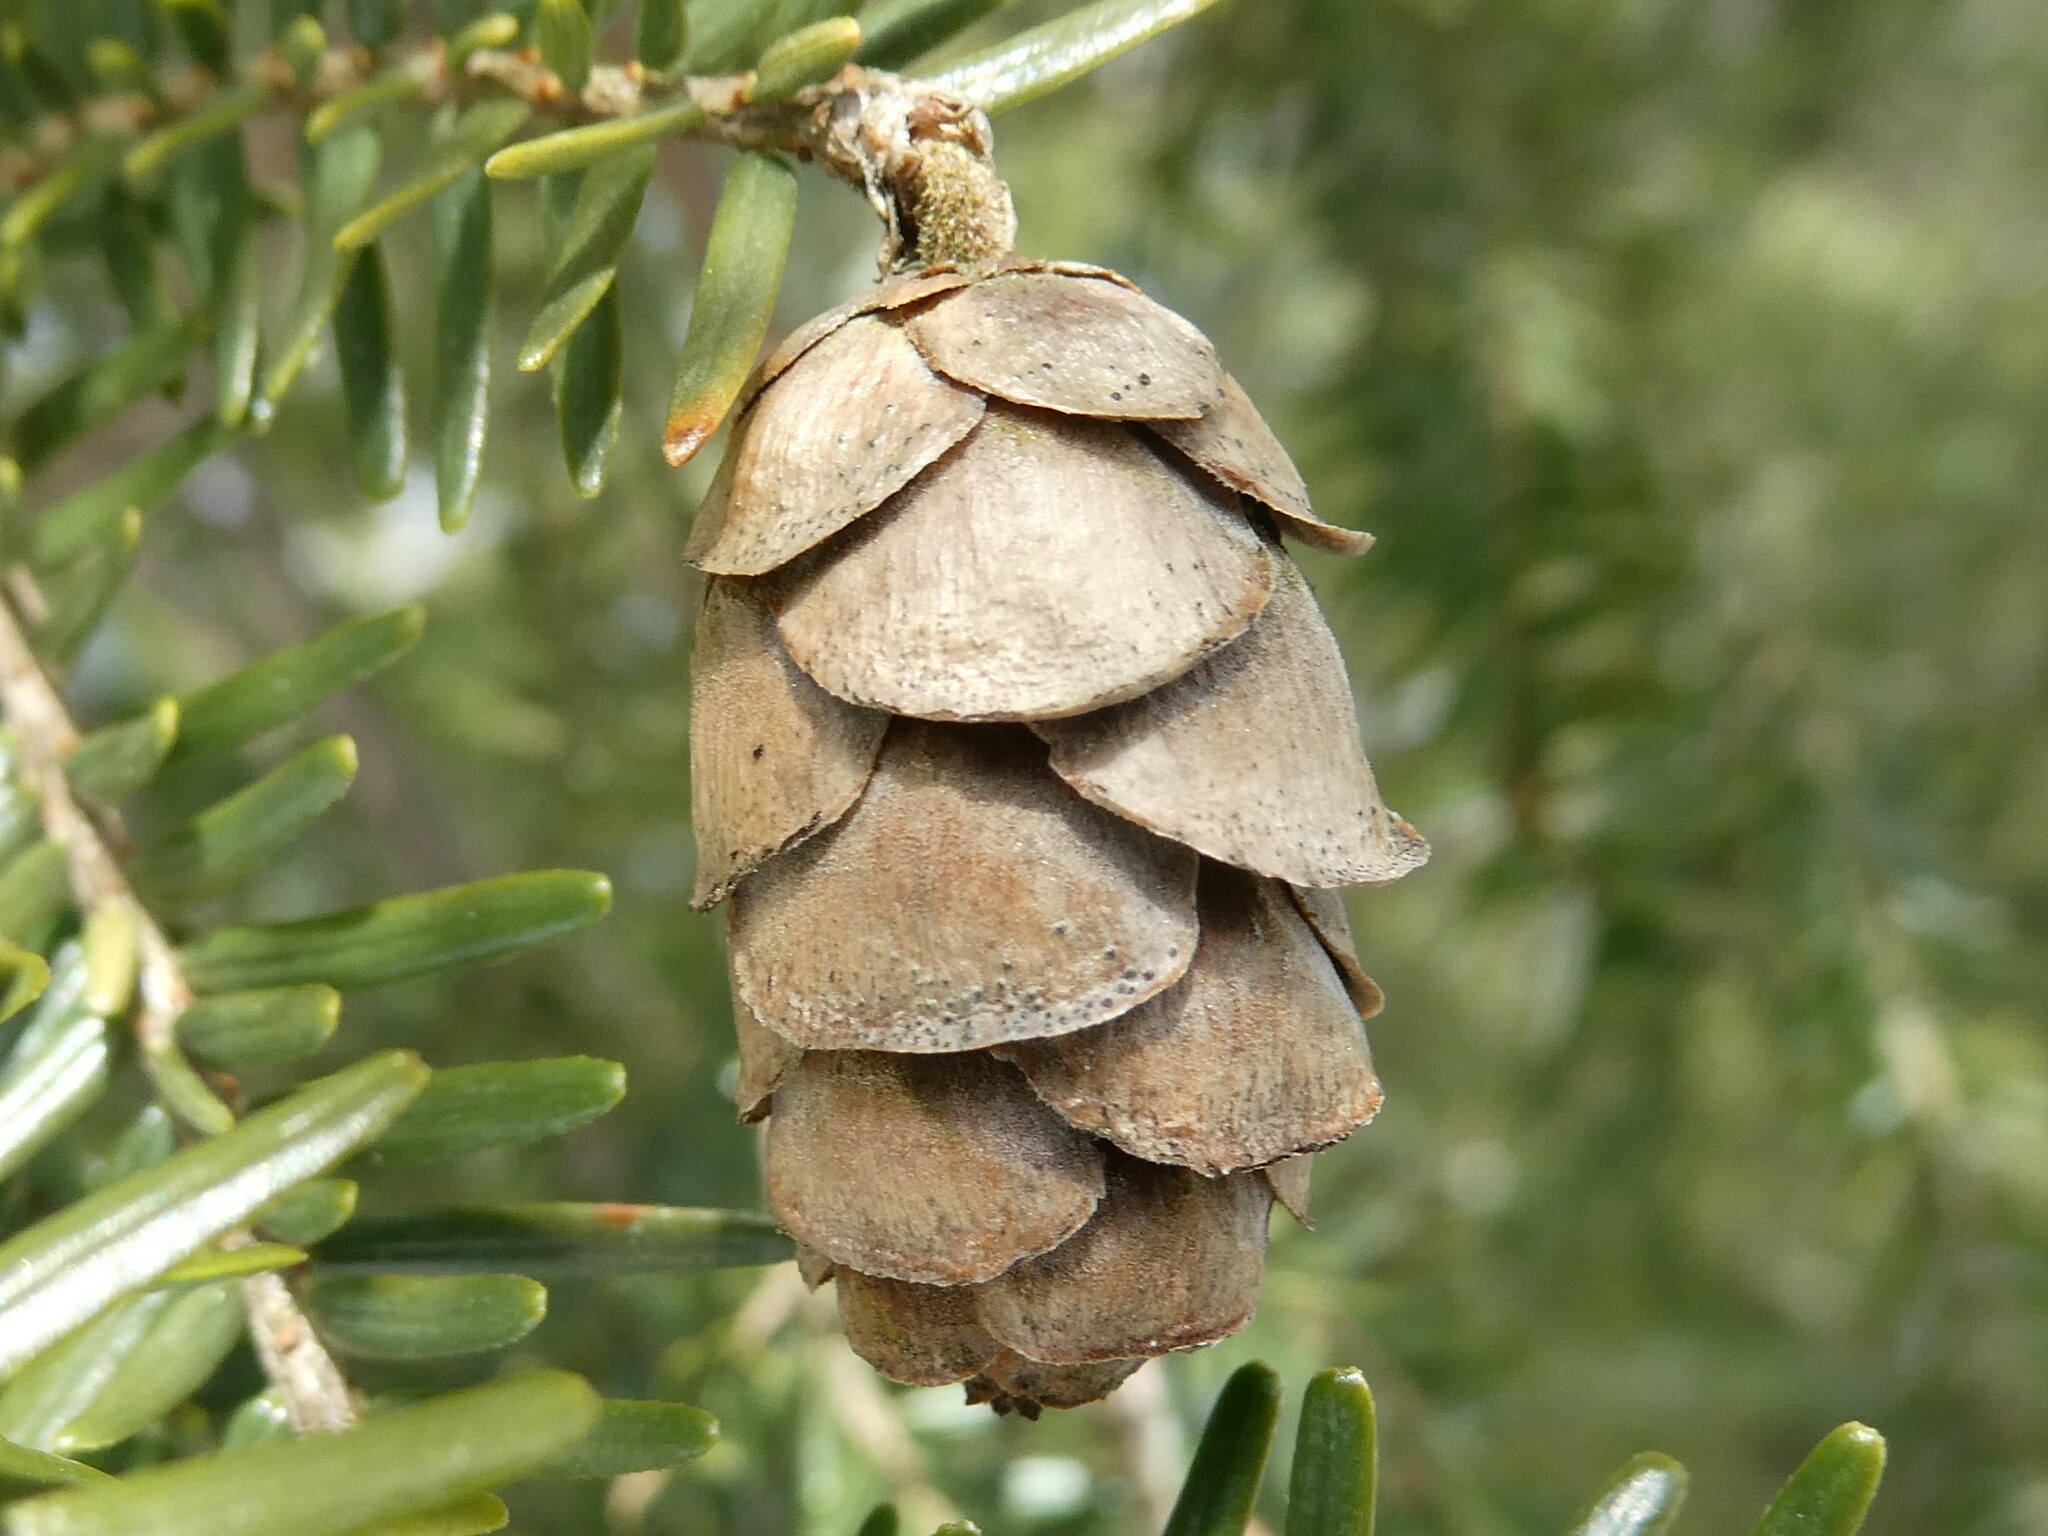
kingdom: Plantae
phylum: Tracheophyta
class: Pinopsida
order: Pinales
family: Pinaceae
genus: Tsuga
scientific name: Tsuga canadensis
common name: Eastern hemlock
